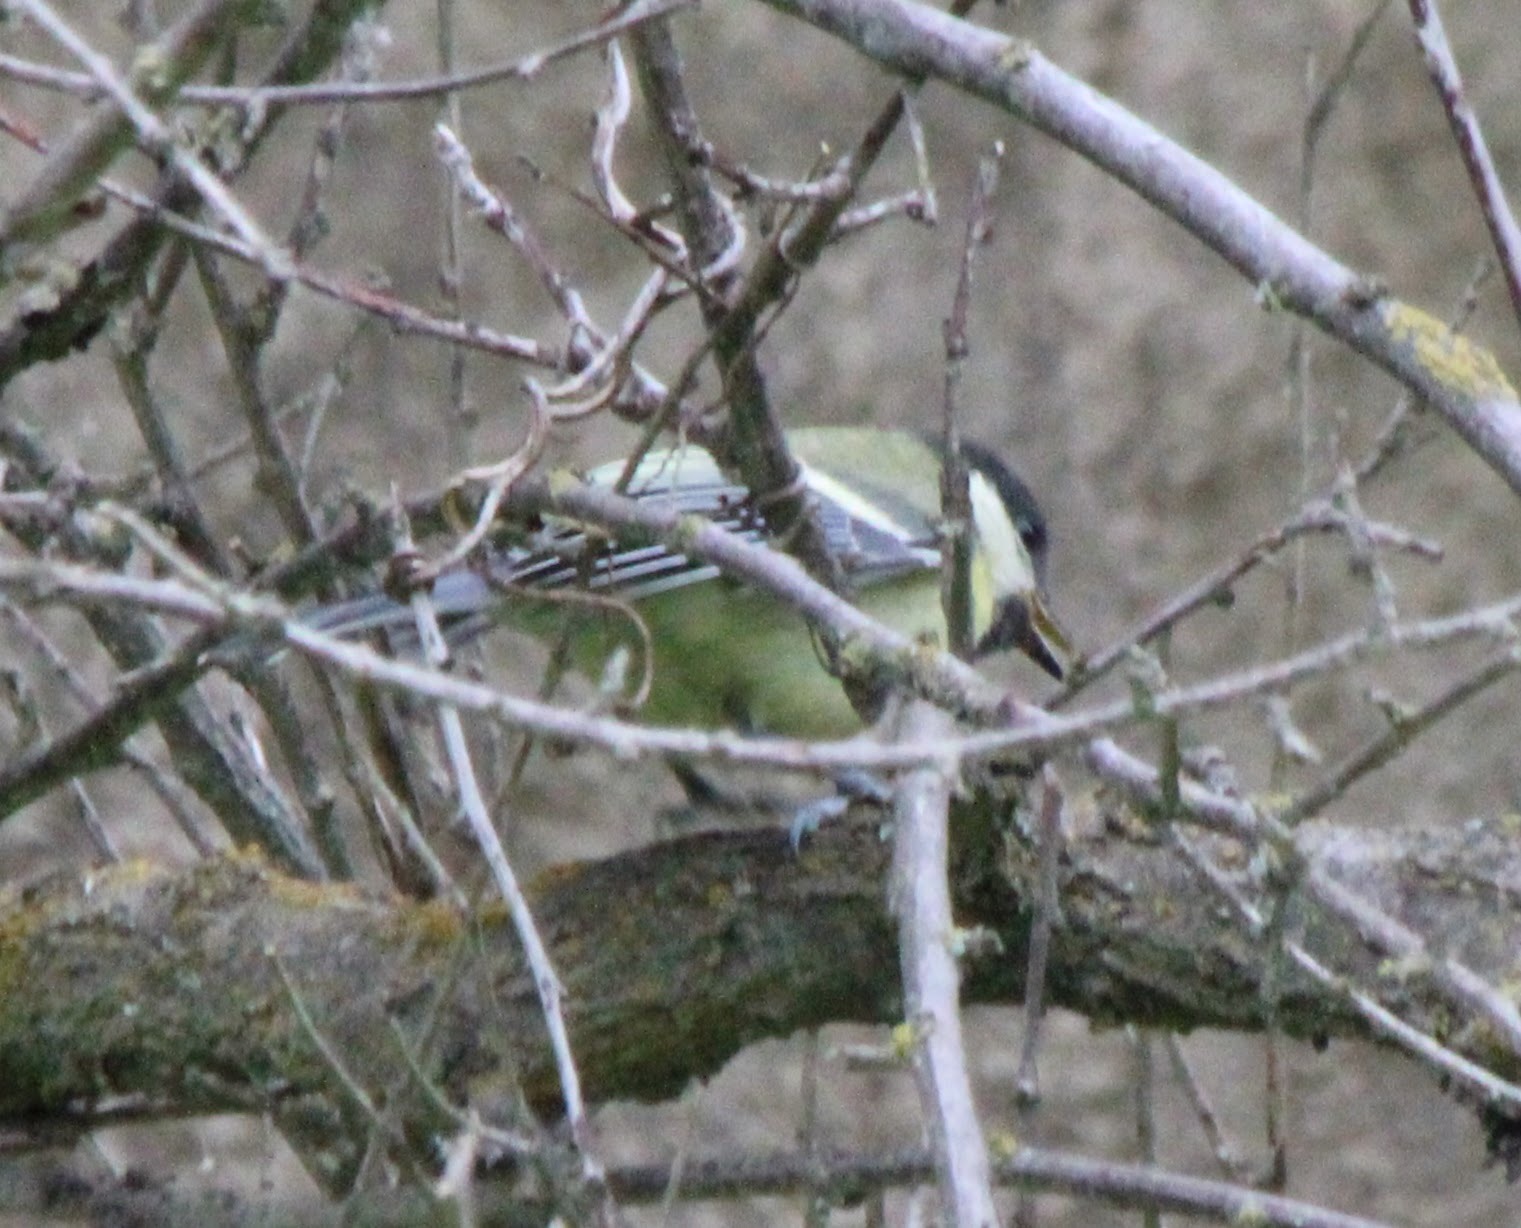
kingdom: Animalia
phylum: Chordata
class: Aves
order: Passeriformes
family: Paridae
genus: Parus
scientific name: Parus major
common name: Great tit
